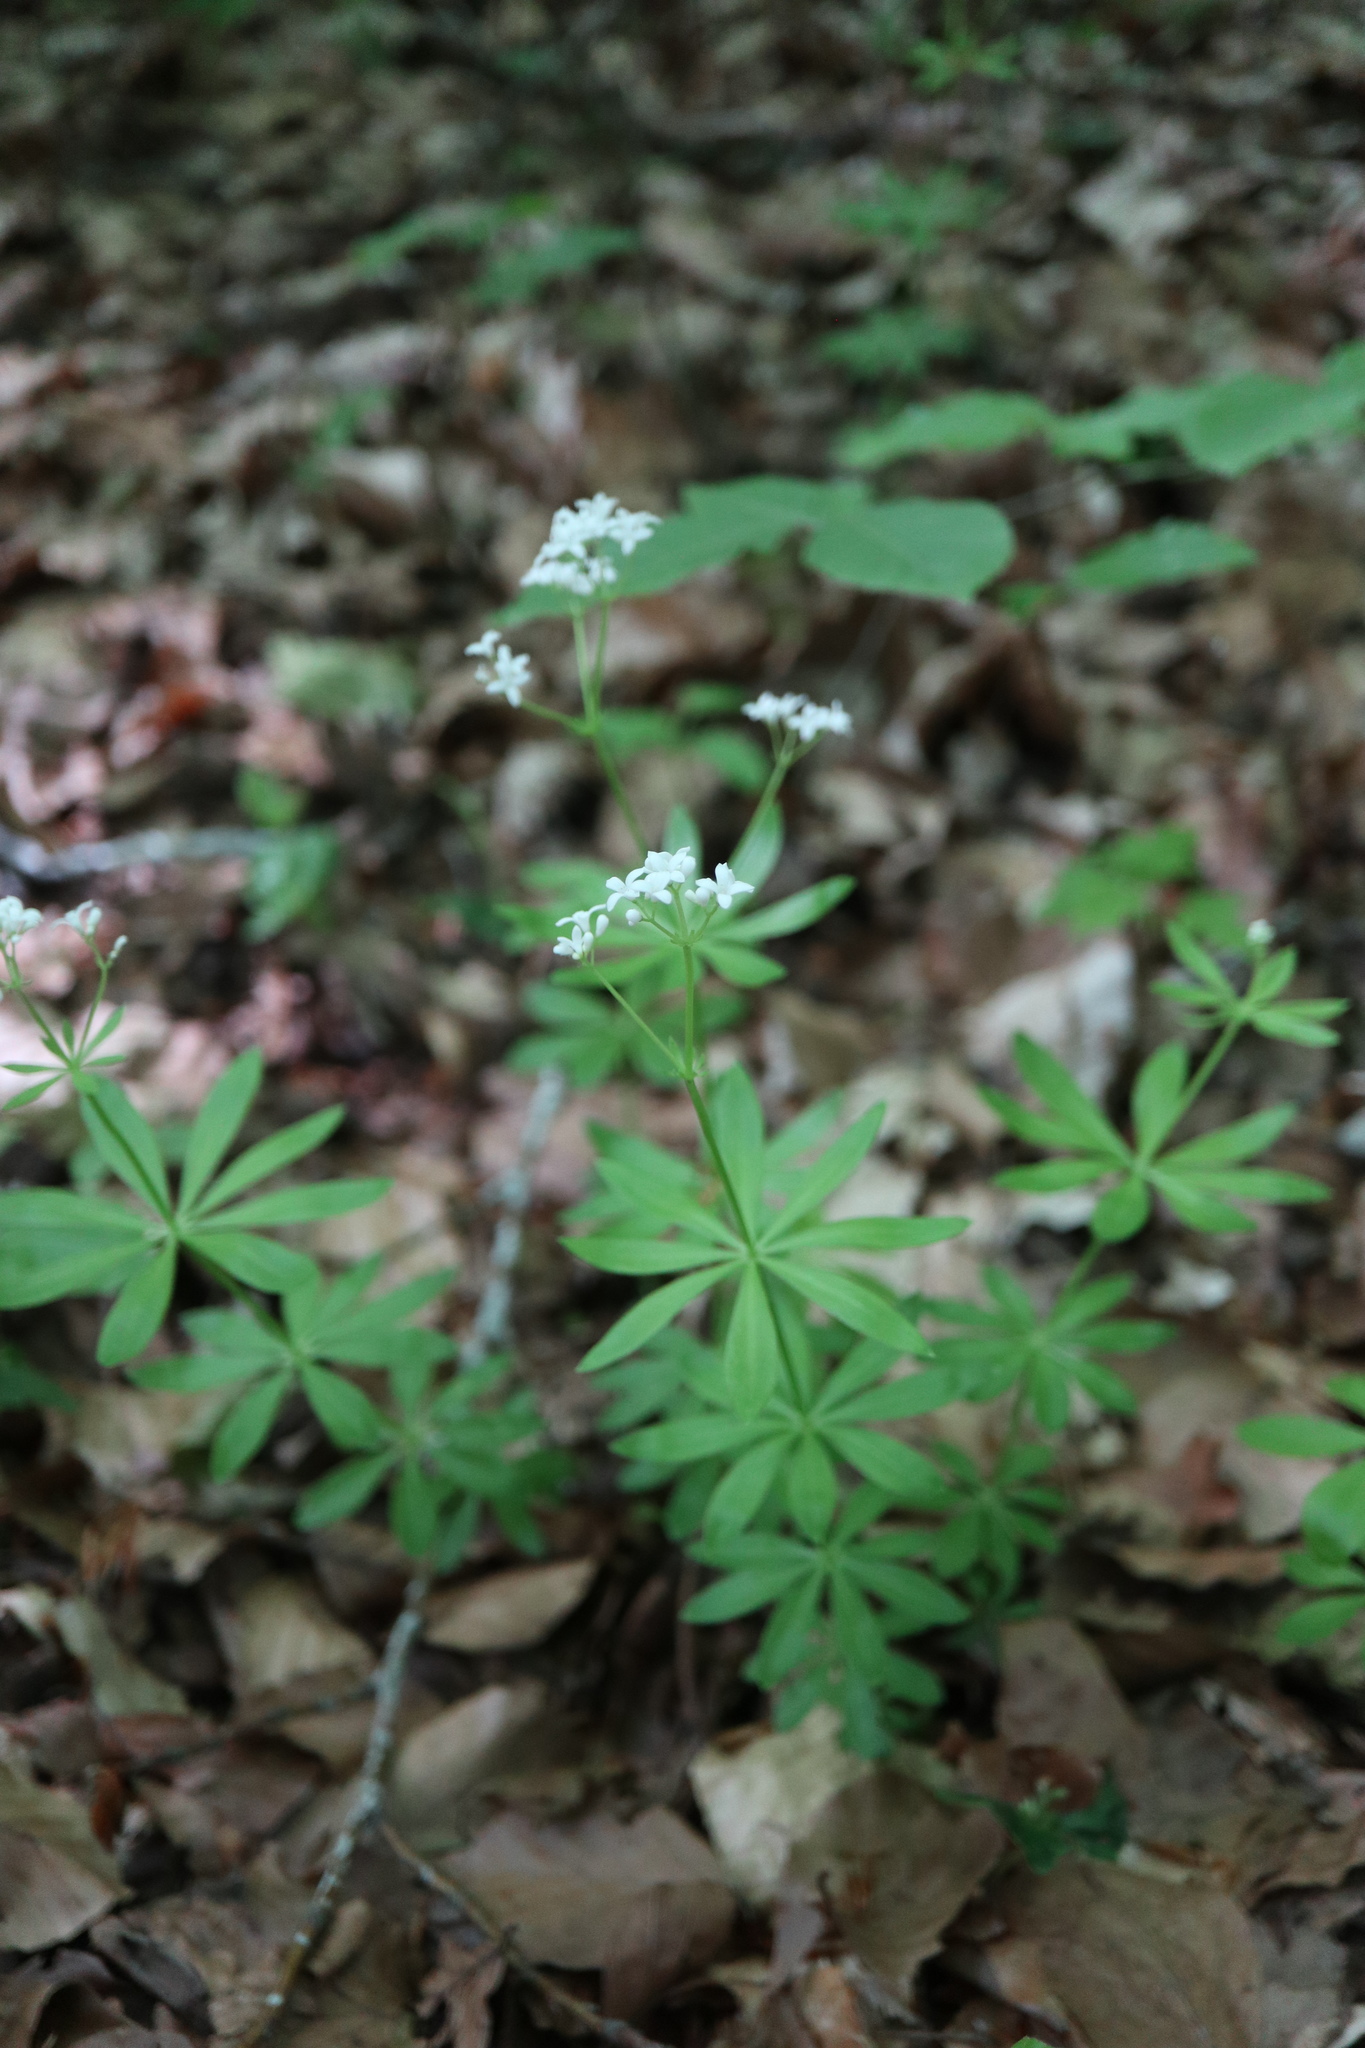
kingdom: Plantae
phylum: Tracheophyta
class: Magnoliopsida
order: Gentianales
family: Rubiaceae
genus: Galium
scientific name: Galium odoratum
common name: Sweet woodruff
